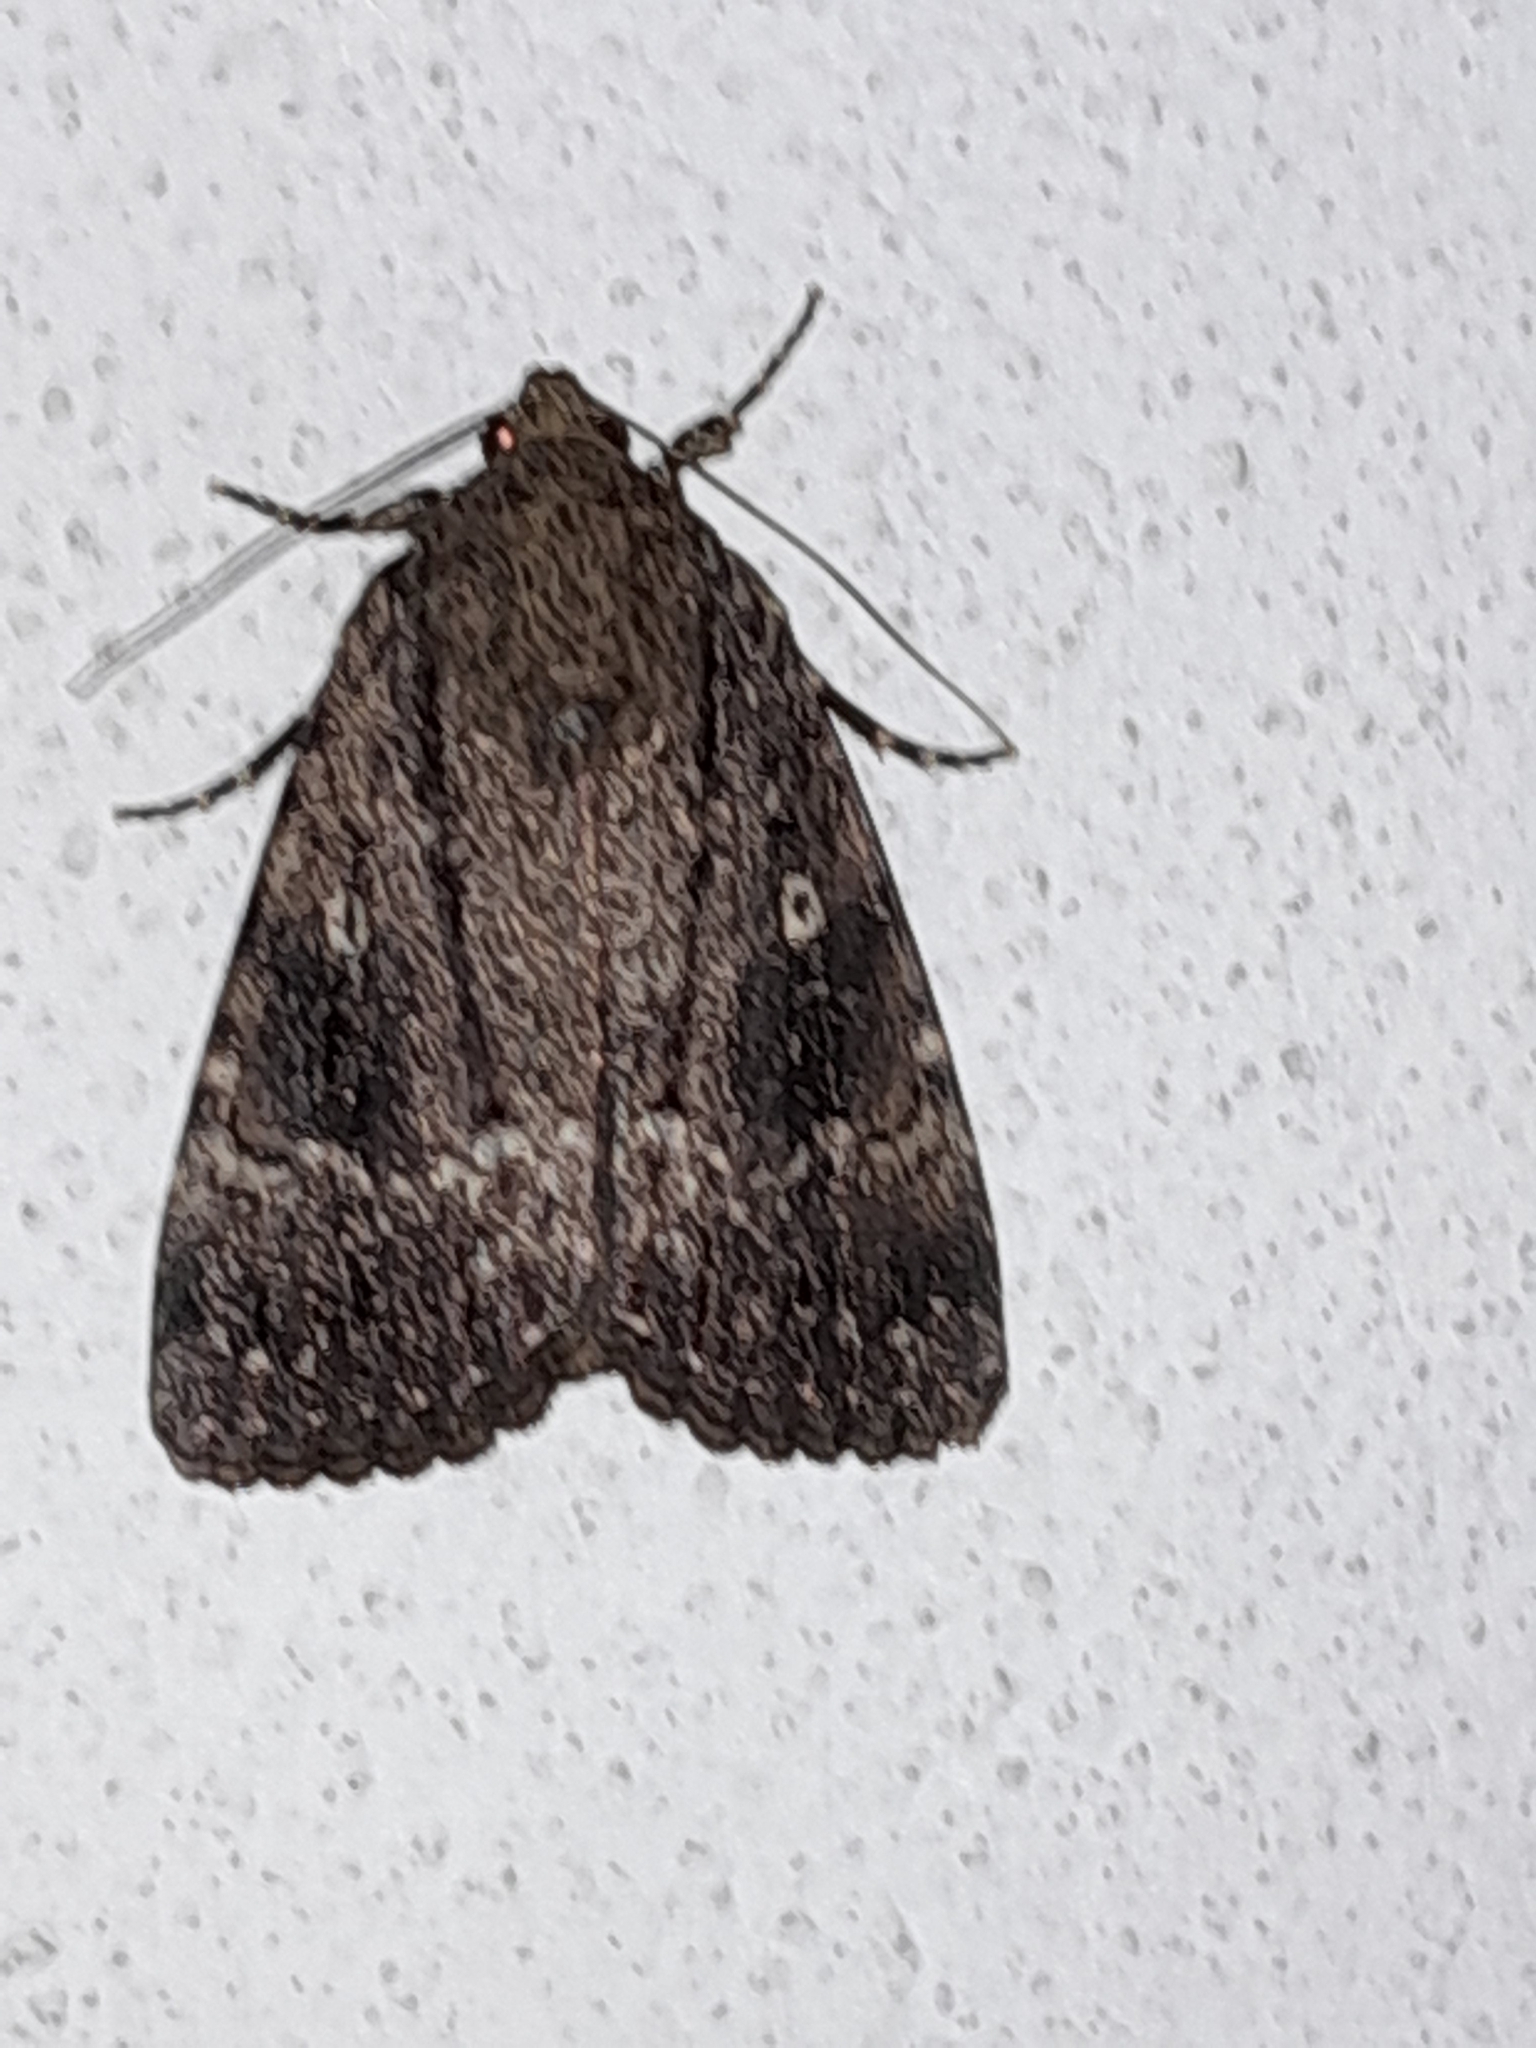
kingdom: Animalia
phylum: Arthropoda
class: Insecta
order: Lepidoptera
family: Noctuidae
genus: Amphipyra
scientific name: Amphipyra pyramidea
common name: Copper underwing
